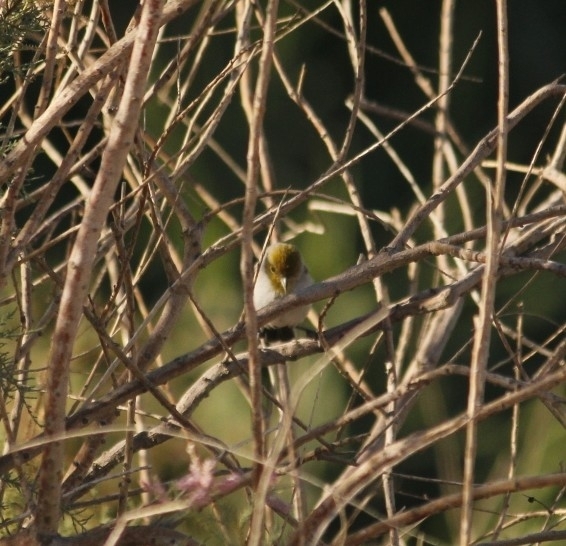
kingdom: Animalia
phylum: Chordata
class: Aves
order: Passeriformes
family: Remizidae
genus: Auriparus
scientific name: Auriparus flaviceps
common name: Verdin
